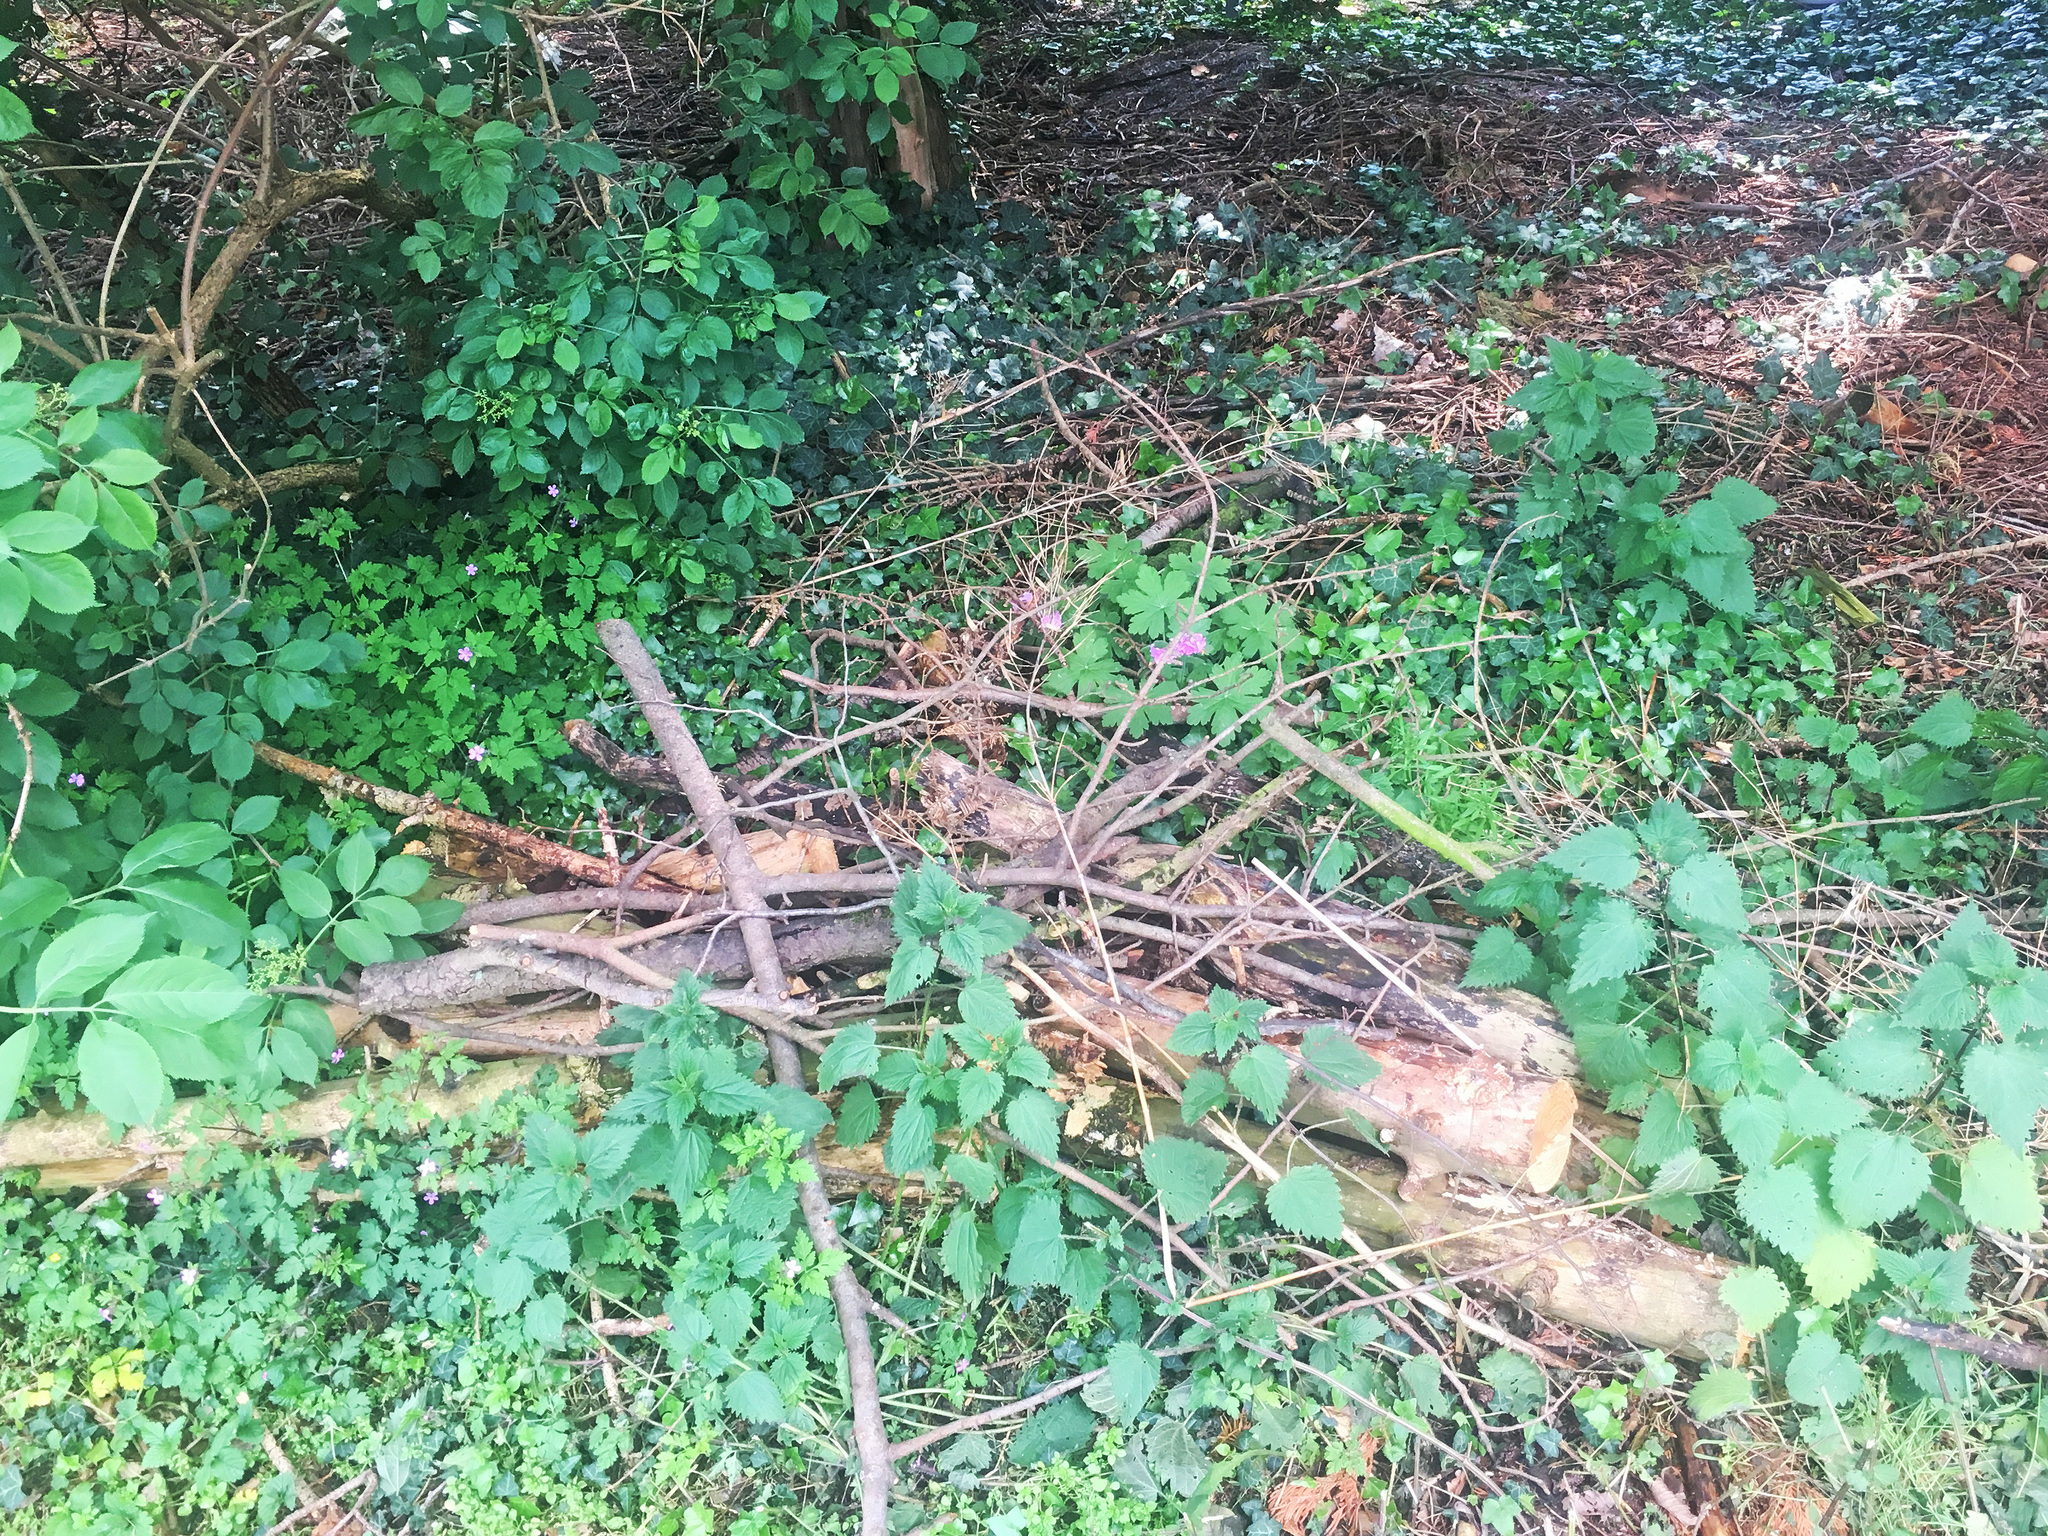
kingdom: Plantae
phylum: Tracheophyta
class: Magnoliopsida
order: Geraniales
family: Geraniaceae
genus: Geranium
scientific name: Geranium macrorrhizum
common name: Rock crane's-bill
